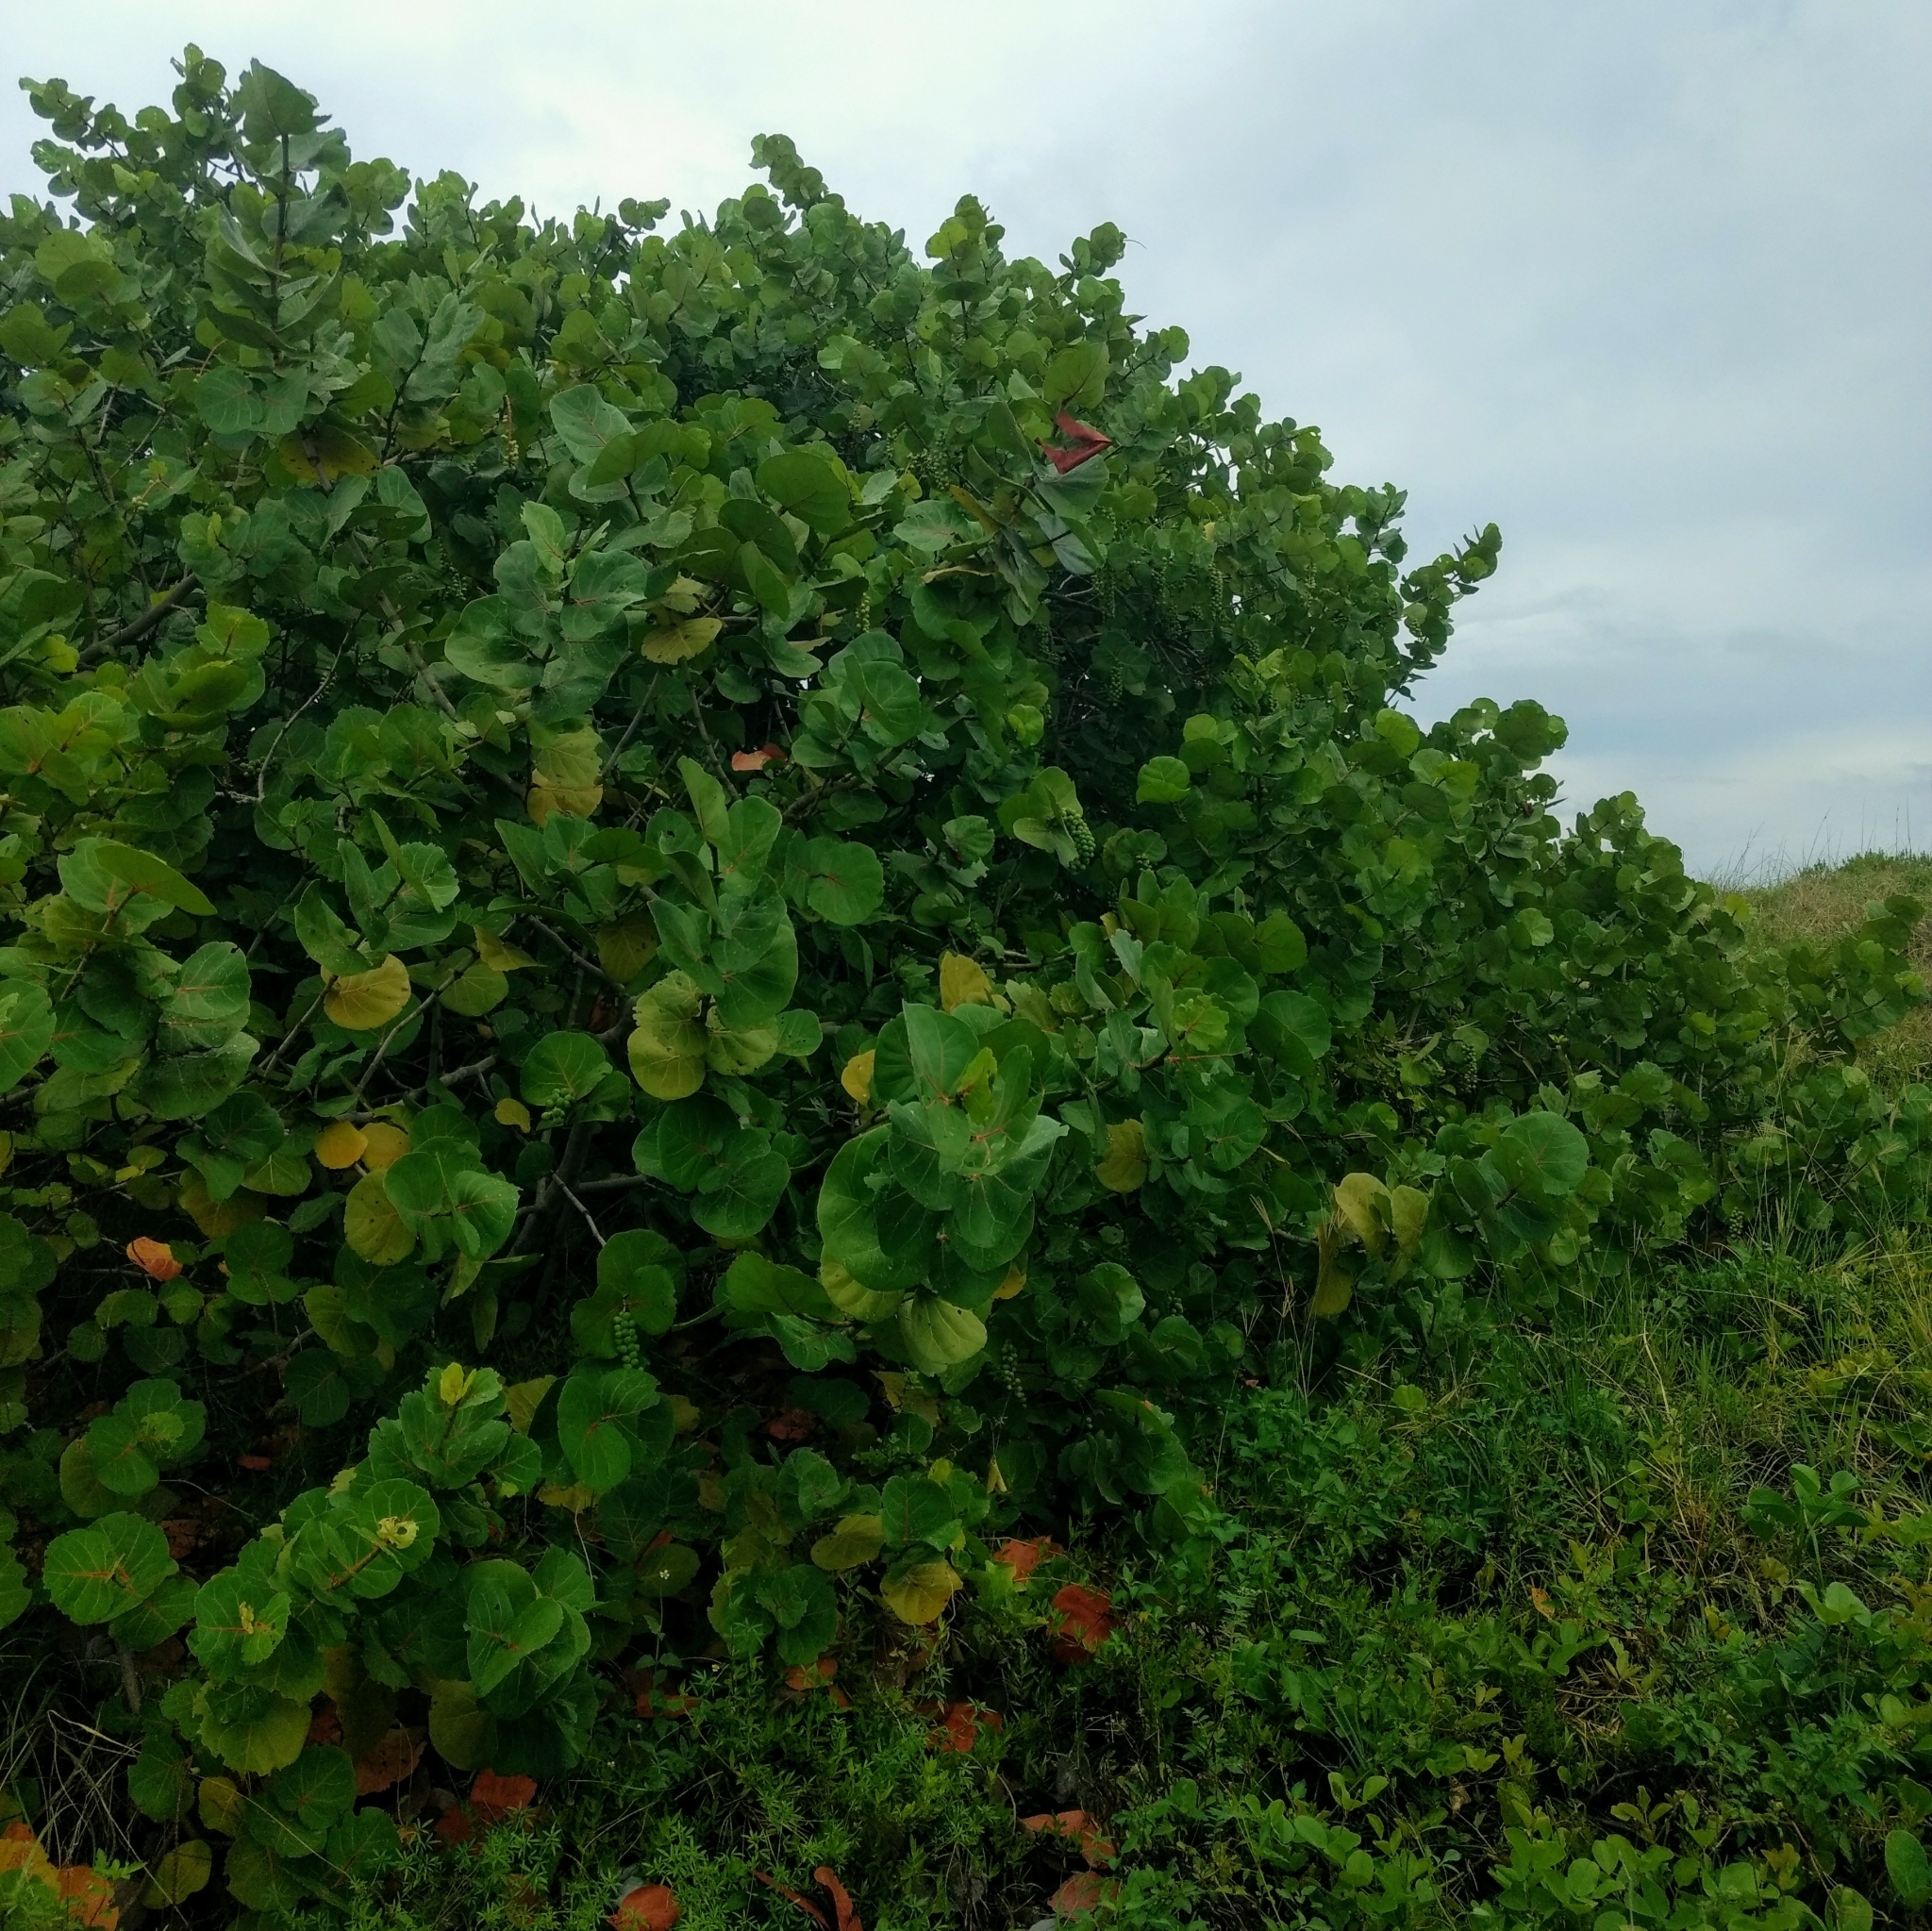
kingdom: Plantae
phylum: Tracheophyta
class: Magnoliopsida
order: Caryophyllales
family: Polygonaceae
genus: Coccoloba
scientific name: Coccoloba uvifera
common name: Seagrape
